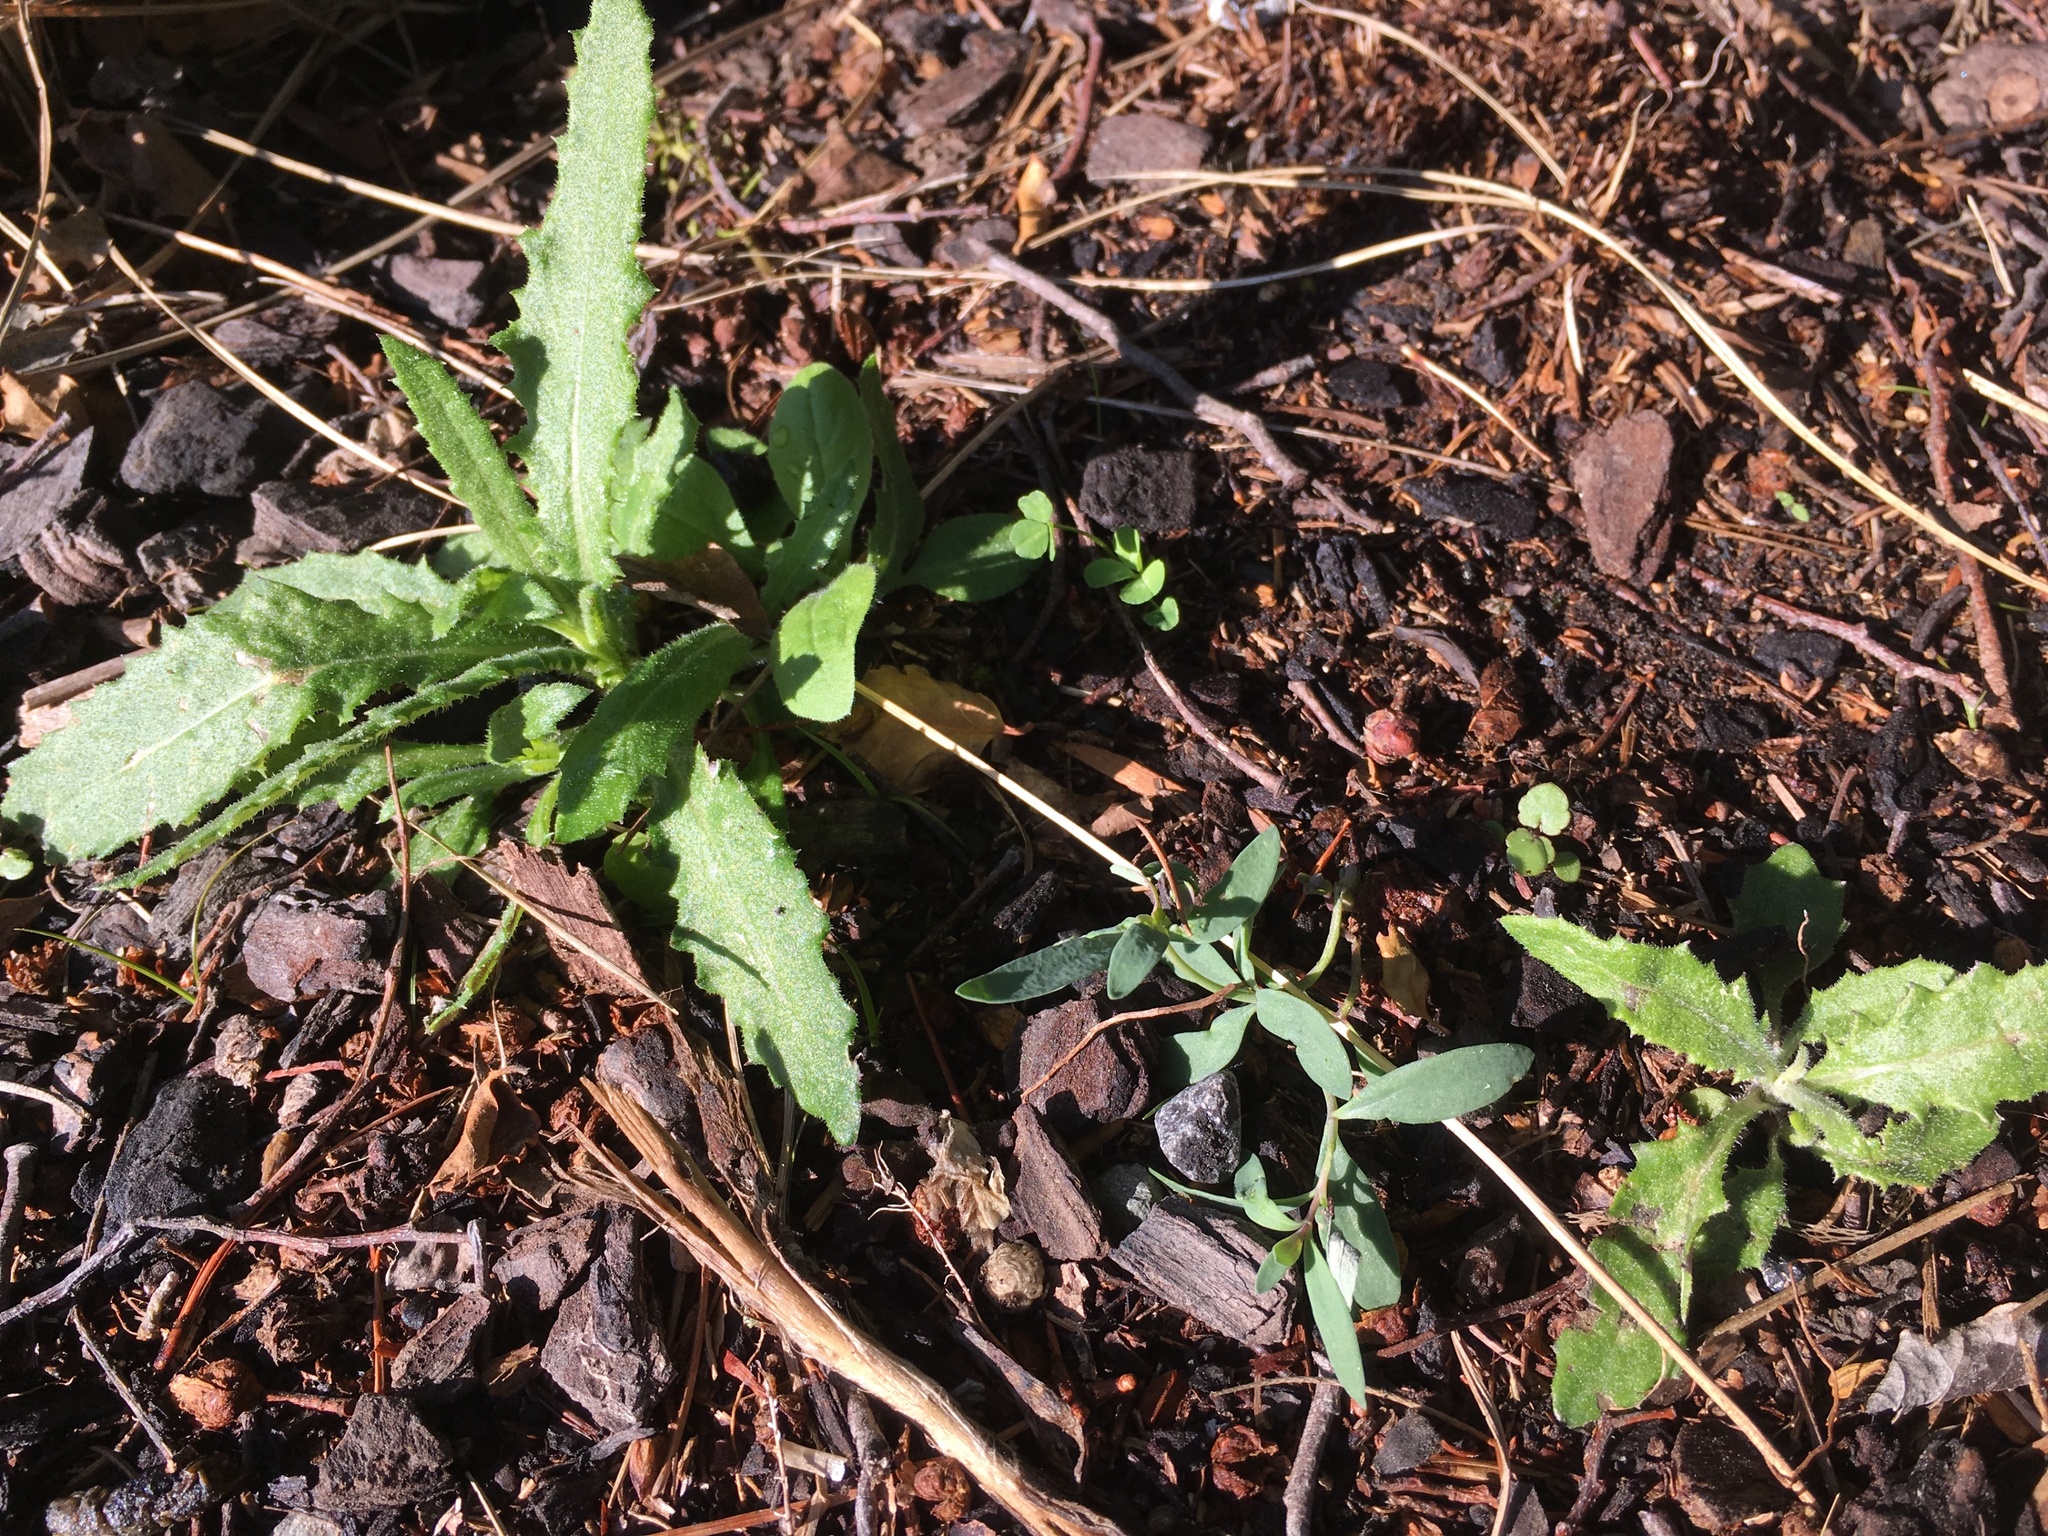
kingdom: Plantae
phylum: Tracheophyta
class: Magnoliopsida
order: Asterales
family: Asteraceae
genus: Senecio
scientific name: Senecio minimus
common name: Toothed fireweed
